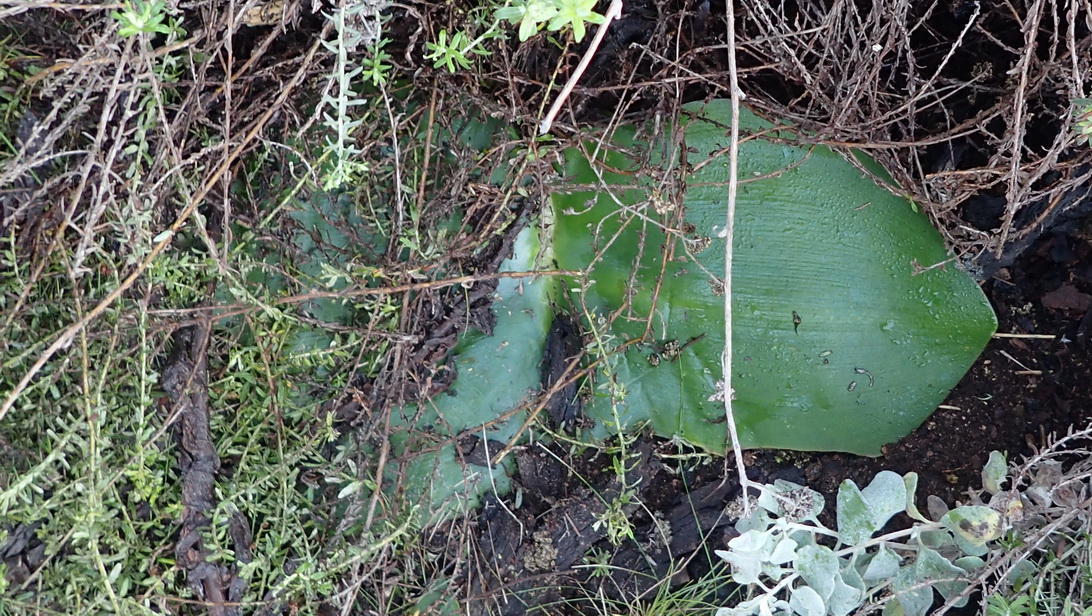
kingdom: Plantae
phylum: Tracheophyta
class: Liliopsida
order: Asparagales
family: Amaryllidaceae
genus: Haemanthus
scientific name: Haemanthus sanguineus
